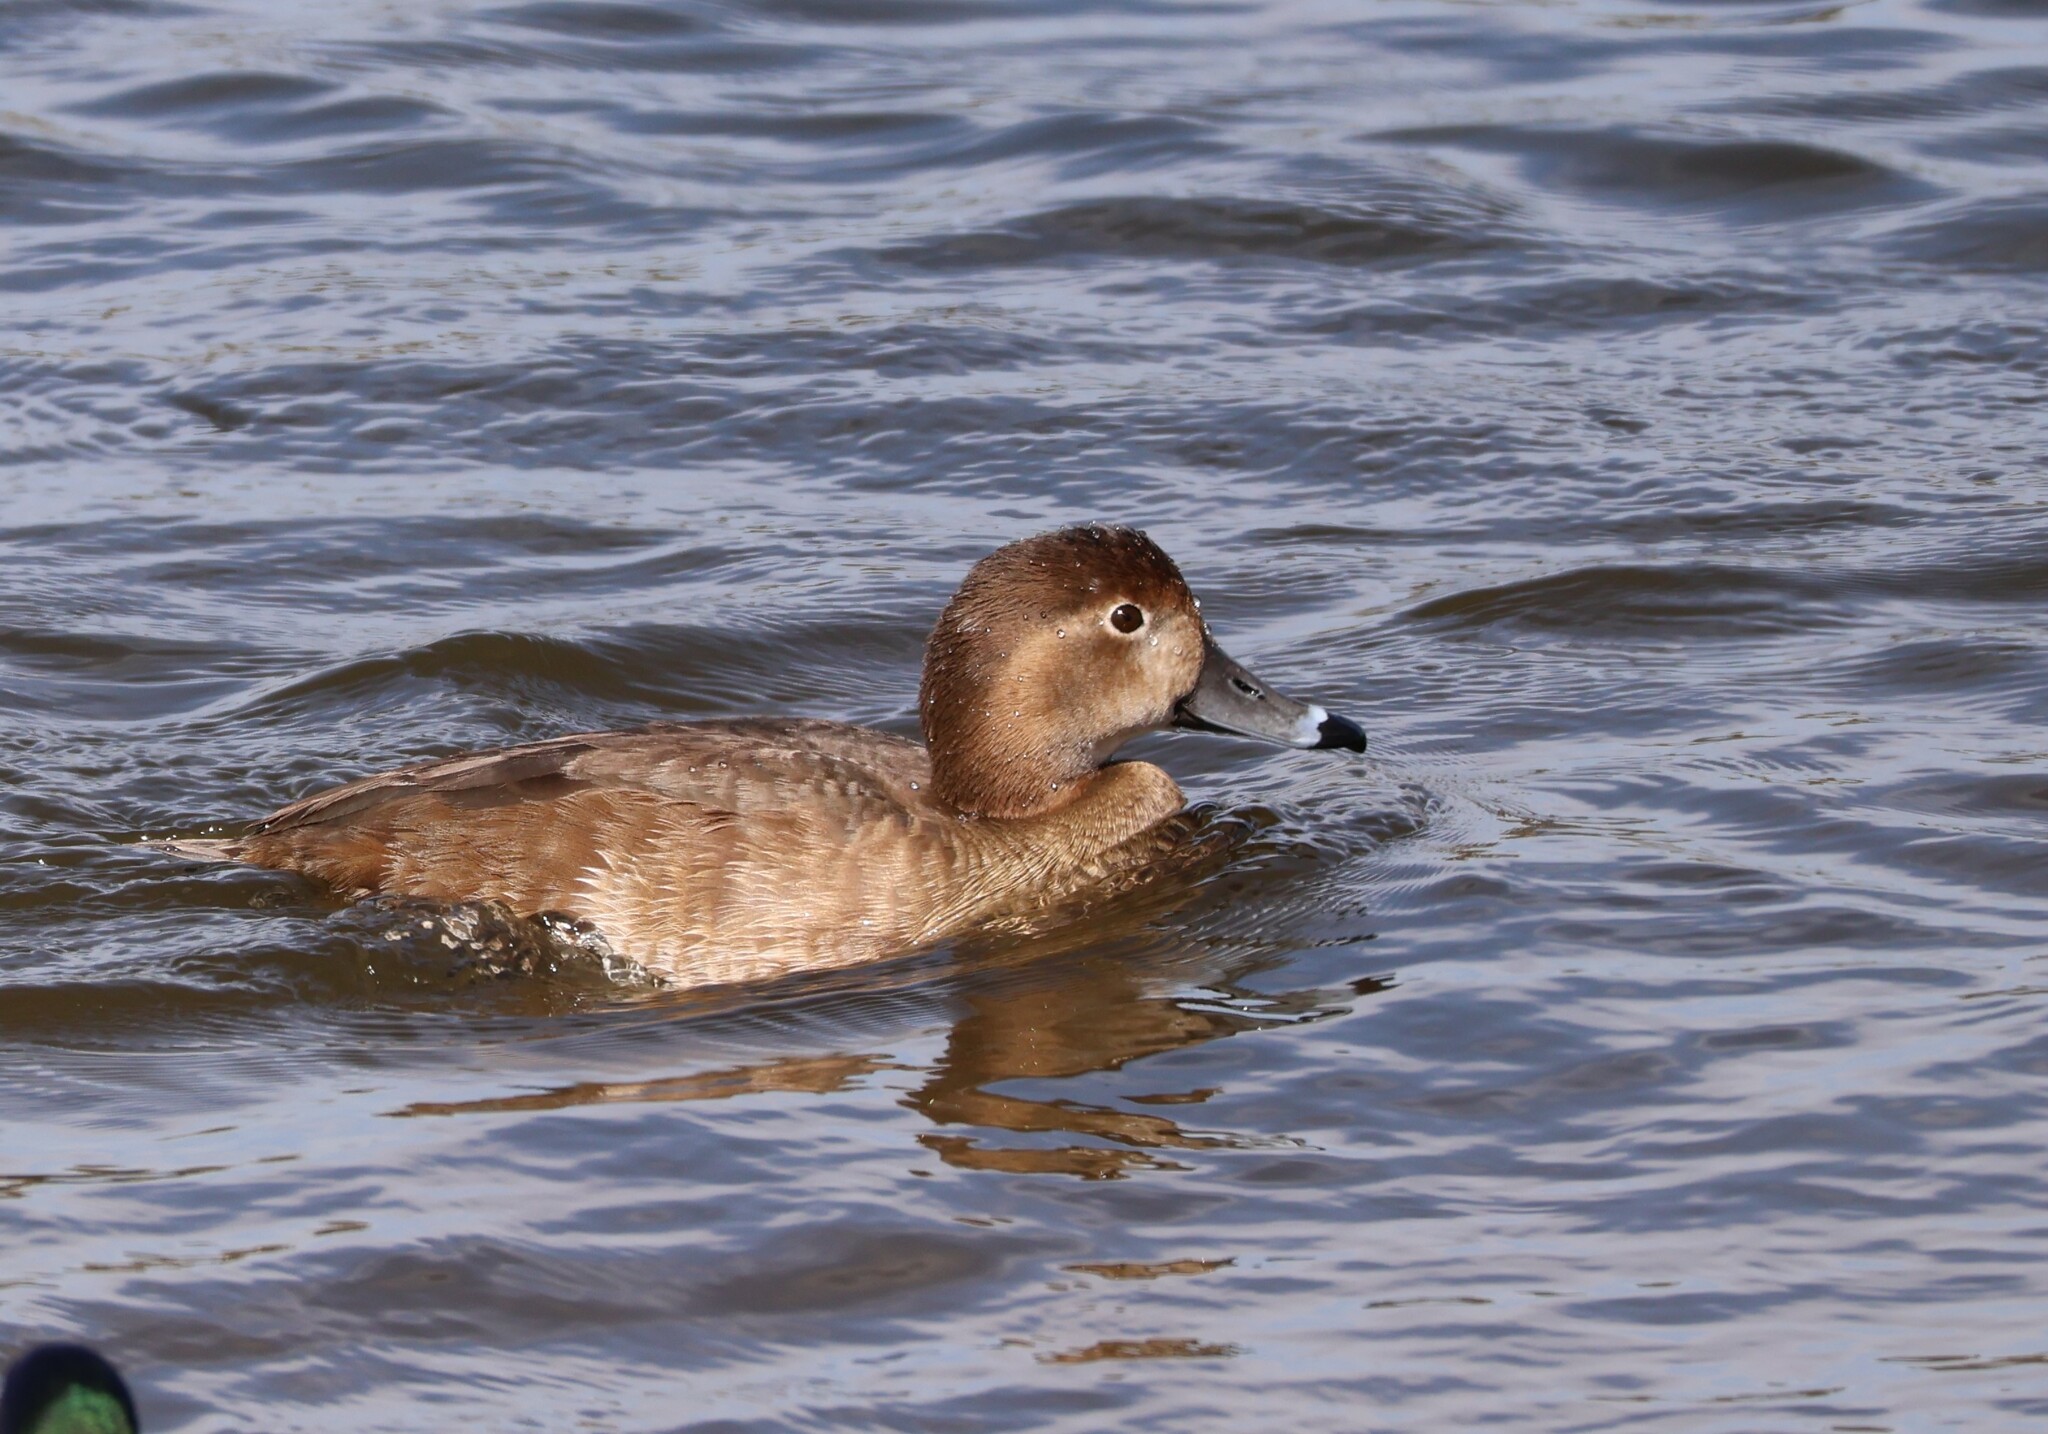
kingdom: Animalia
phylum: Chordata
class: Aves
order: Anseriformes
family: Anatidae
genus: Aythya
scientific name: Aythya americana
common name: Redhead
